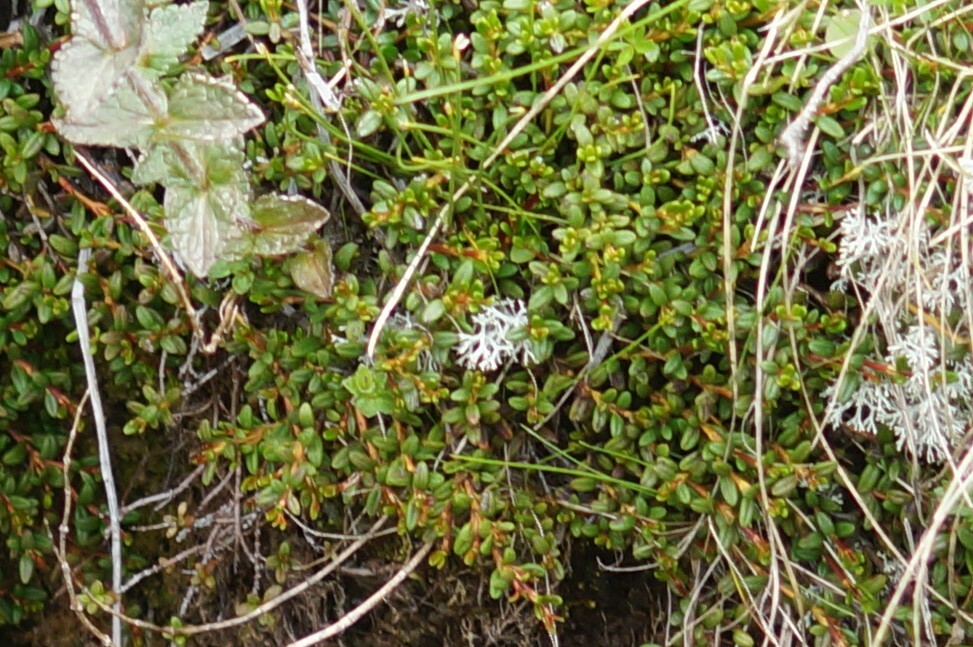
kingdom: Plantae
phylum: Tracheophyta
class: Magnoliopsida
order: Ericales
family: Ericaceae
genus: Kalmia
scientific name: Kalmia procumbens
